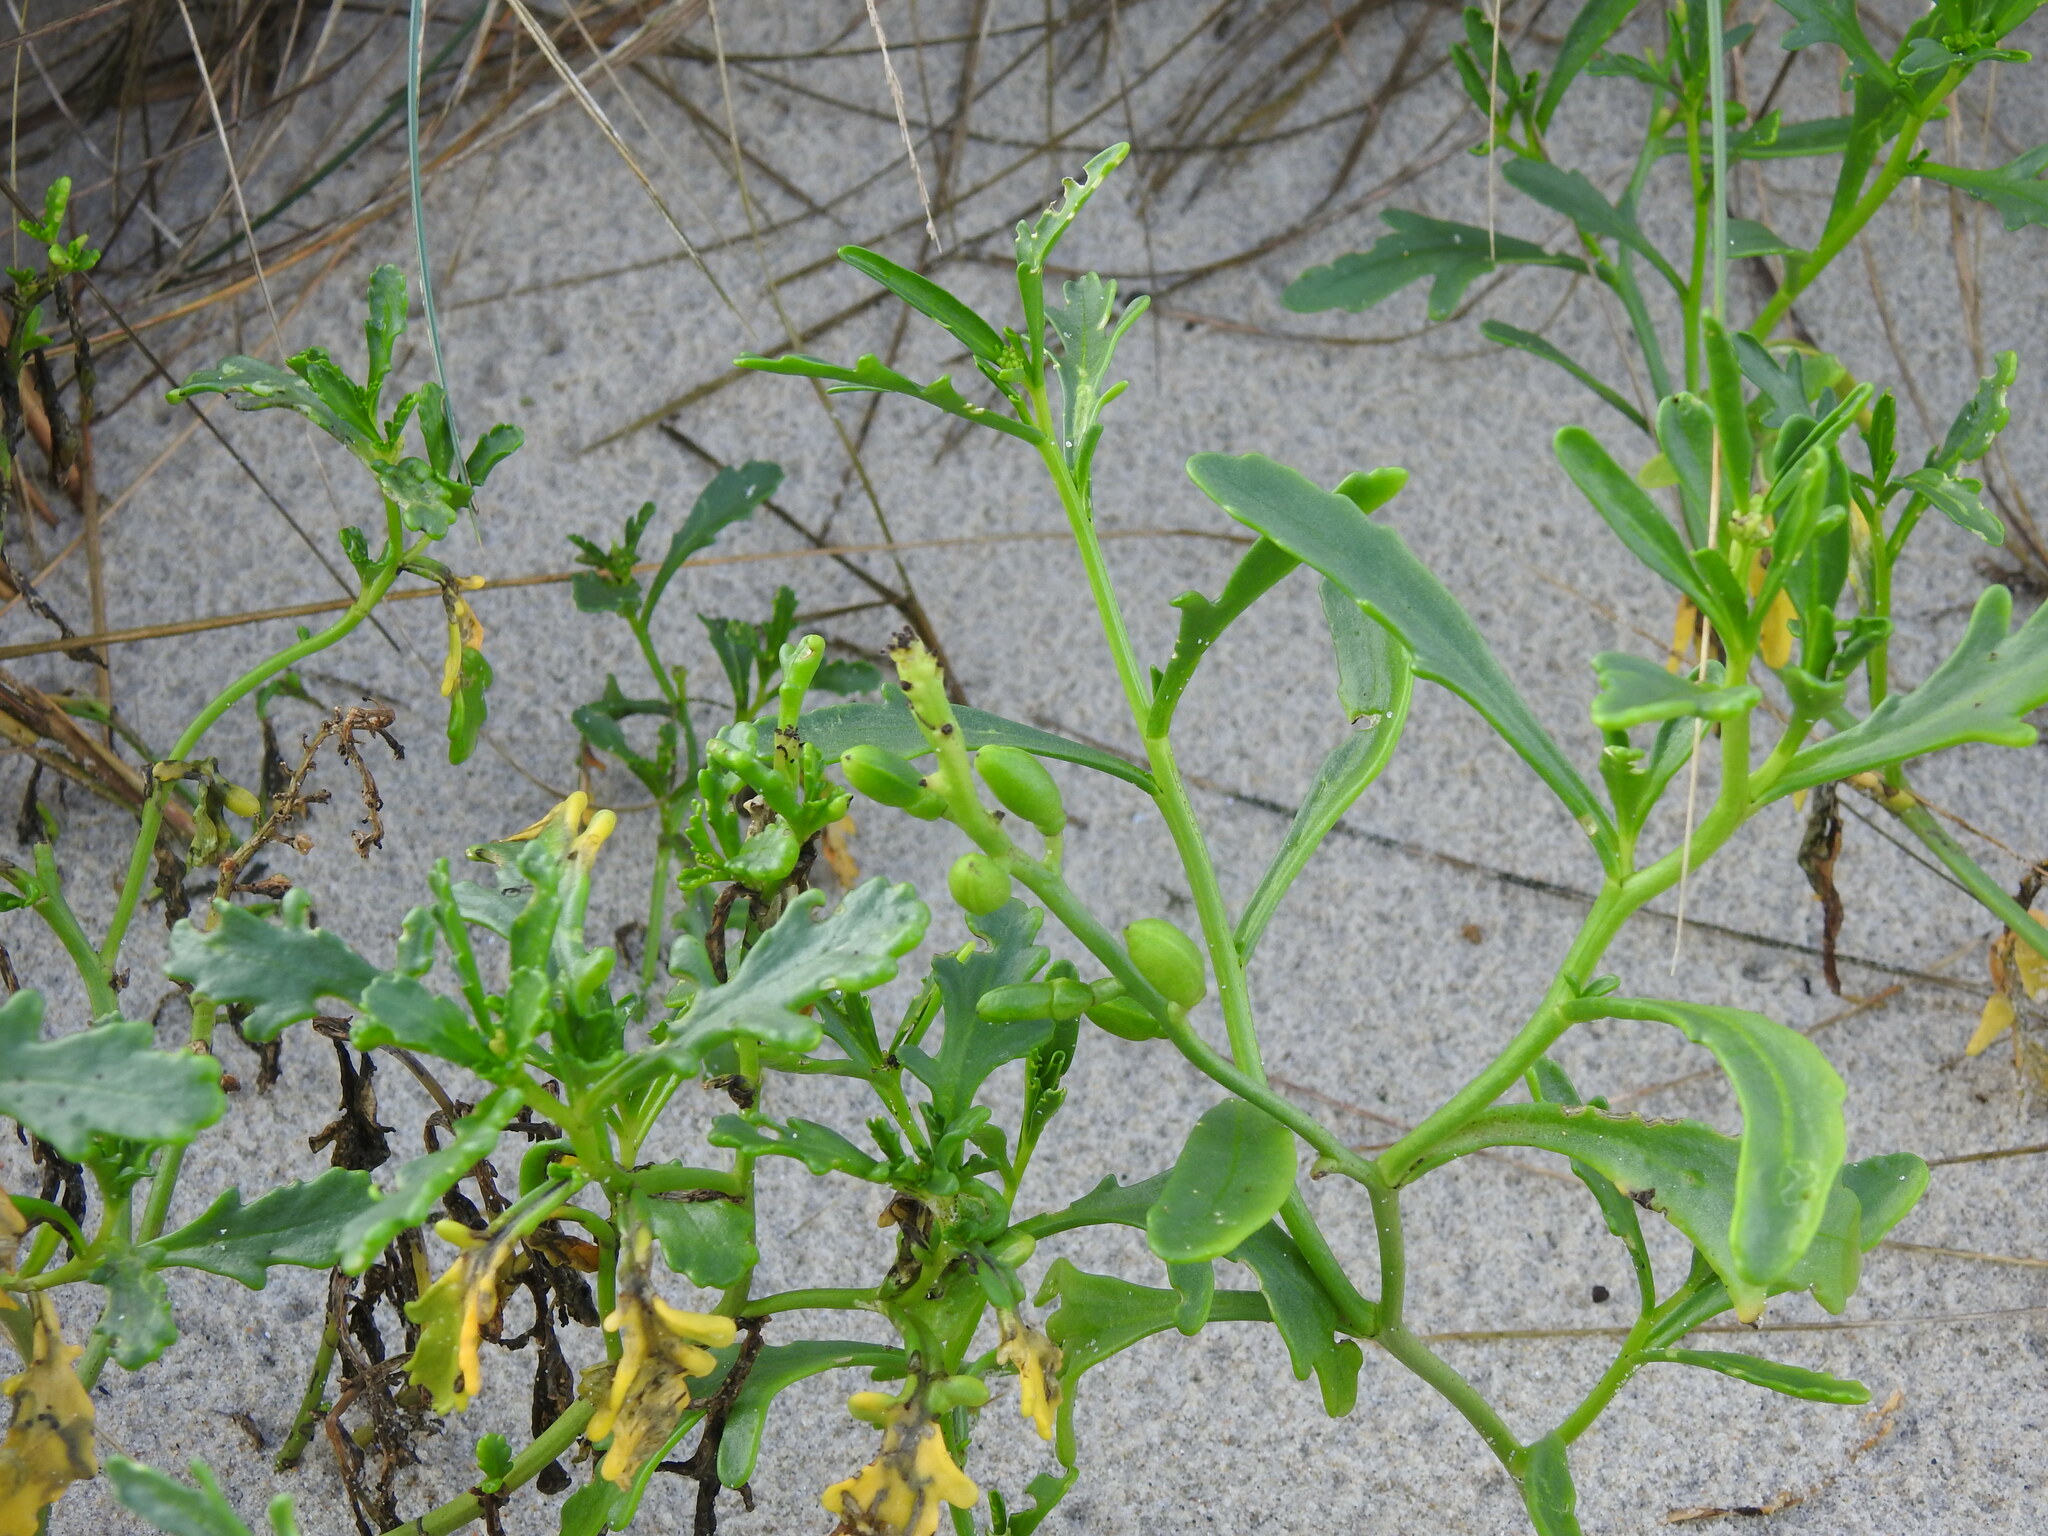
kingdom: Plantae
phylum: Tracheophyta
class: Magnoliopsida
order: Brassicales
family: Brassicaceae
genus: Cakile
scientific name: Cakile maritima
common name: Sea rocket
